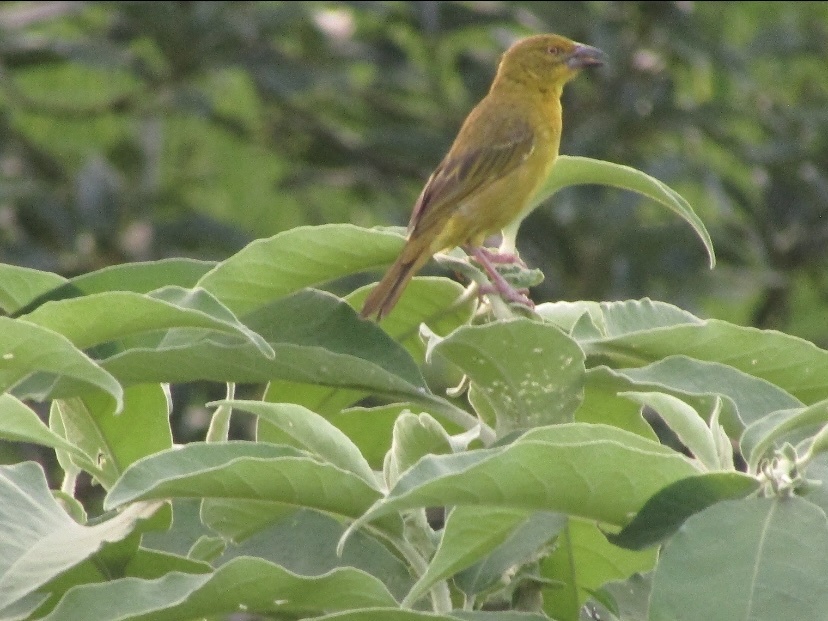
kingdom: Animalia
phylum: Chordata
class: Aves
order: Passeriformes
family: Ploceidae
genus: Ploceus
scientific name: Ploceus xanthops
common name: Holub's golden weaver
